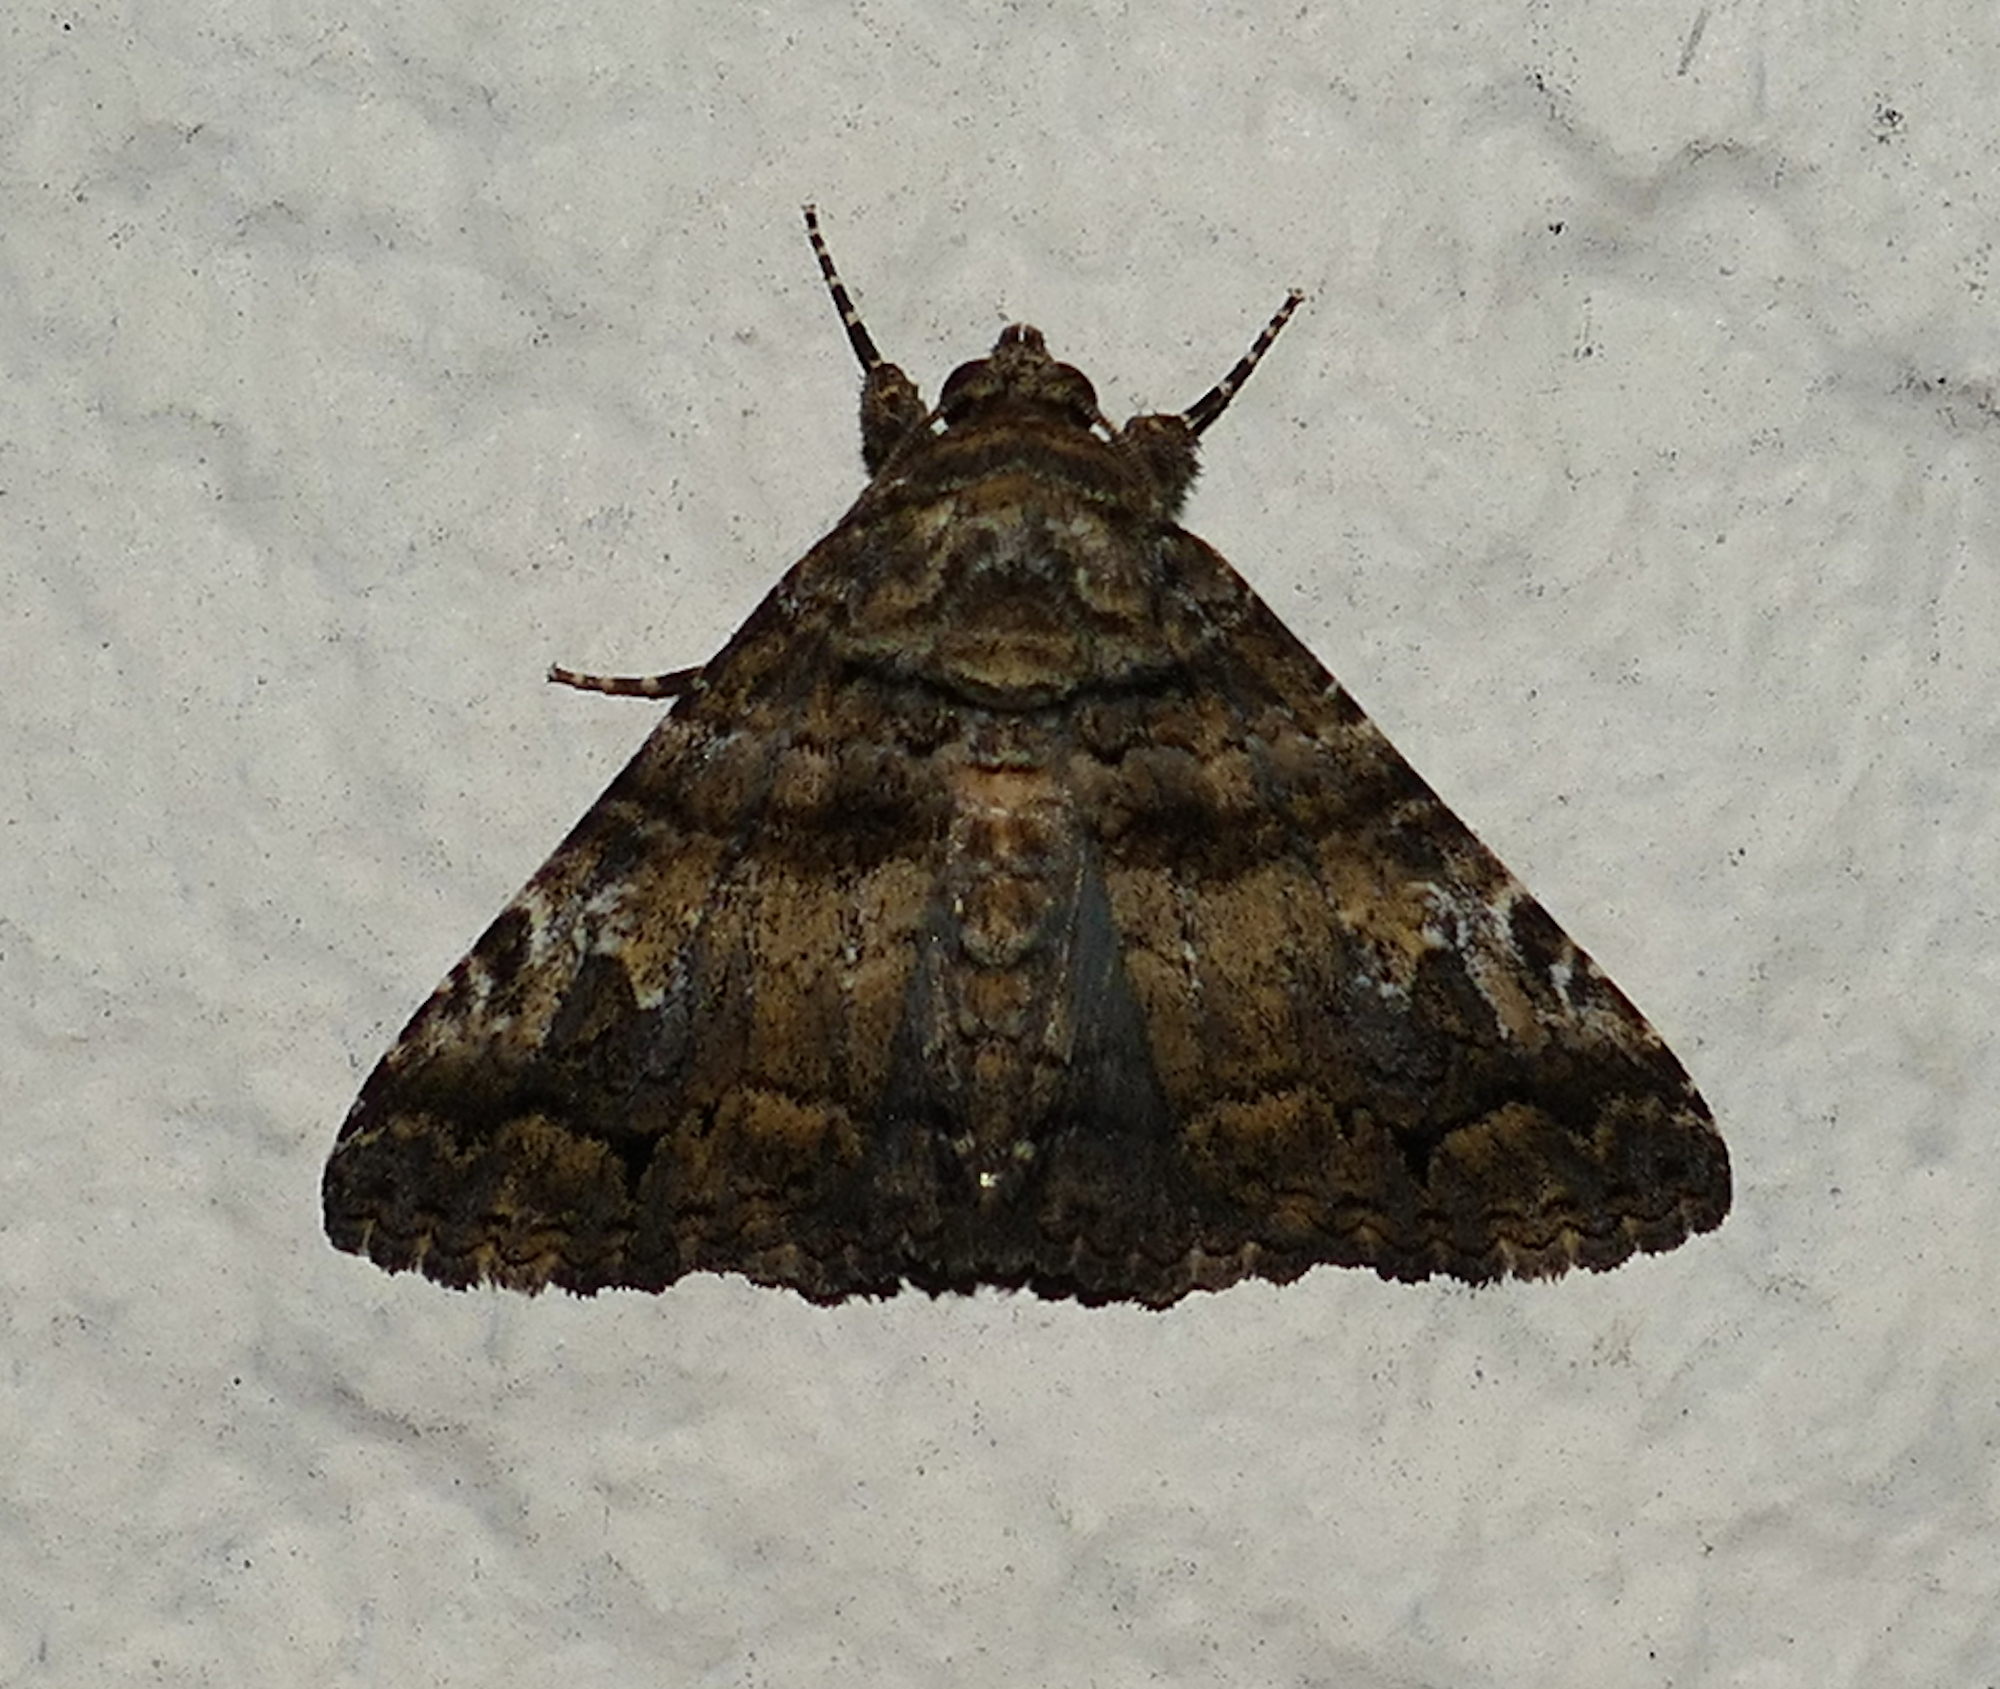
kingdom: Animalia
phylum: Arthropoda
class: Insecta
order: Lepidoptera
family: Erebidae
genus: Metria
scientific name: Metria amella
